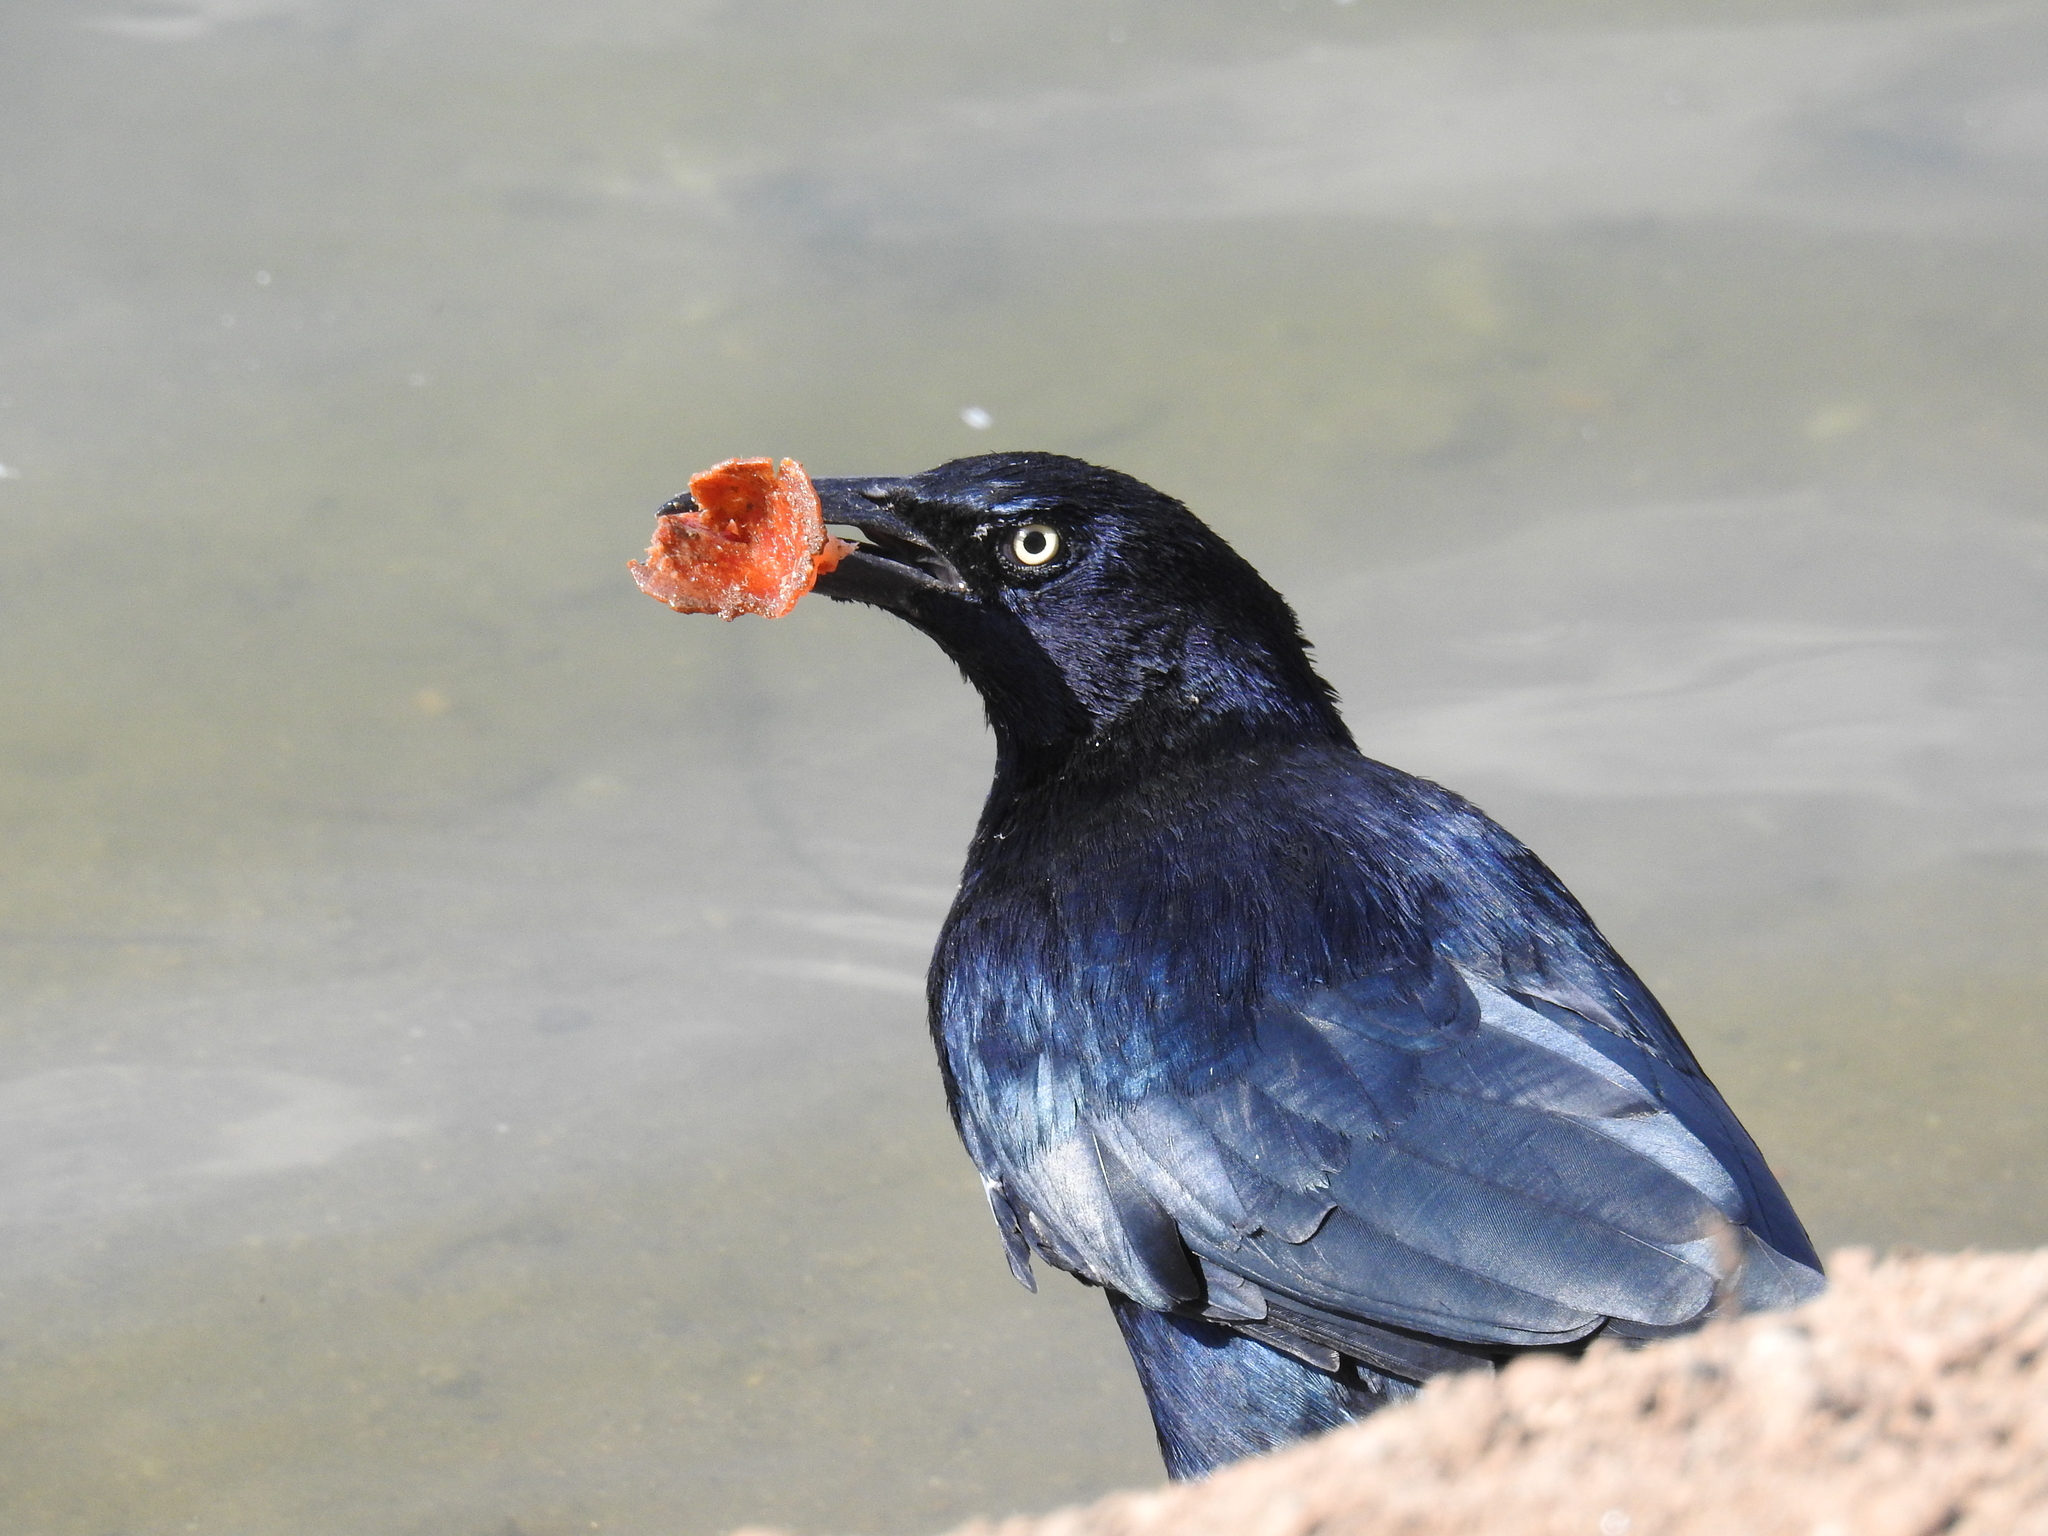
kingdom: Animalia
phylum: Chordata
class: Aves
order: Passeriformes
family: Icteridae
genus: Quiscalus
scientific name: Quiscalus mexicanus
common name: Great-tailed grackle
